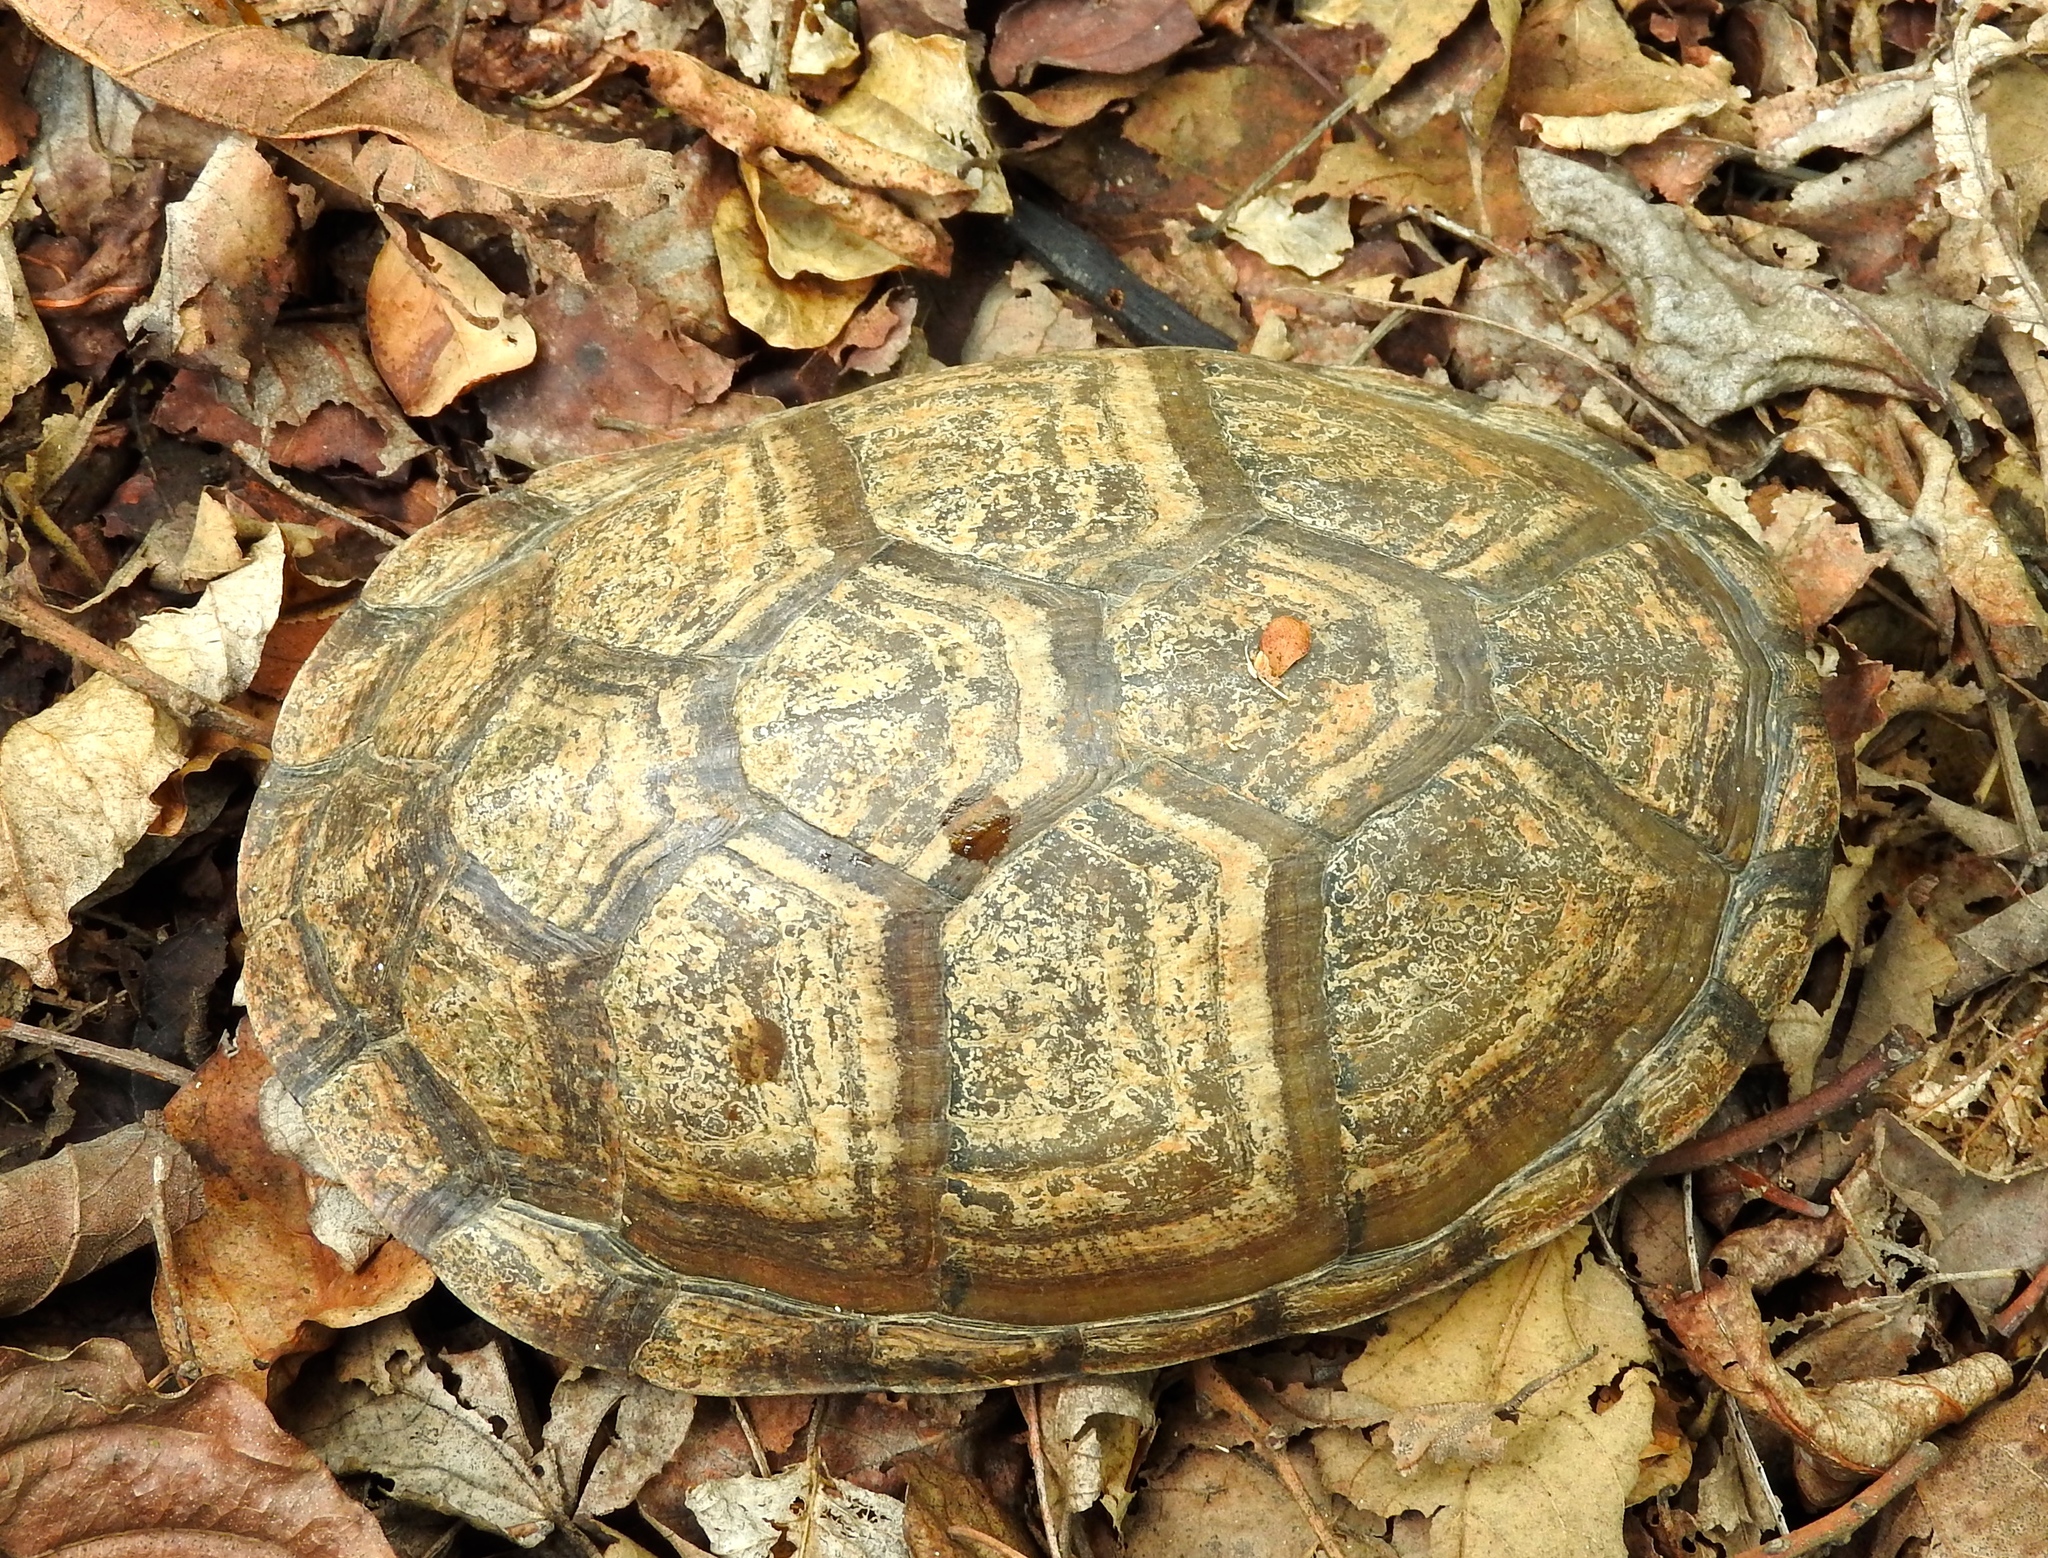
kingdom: Animalia
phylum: Chordata
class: Testudines
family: Kinosternidae
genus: Kinosternon
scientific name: Kinosternon integrum
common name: Mexican mud turtle
